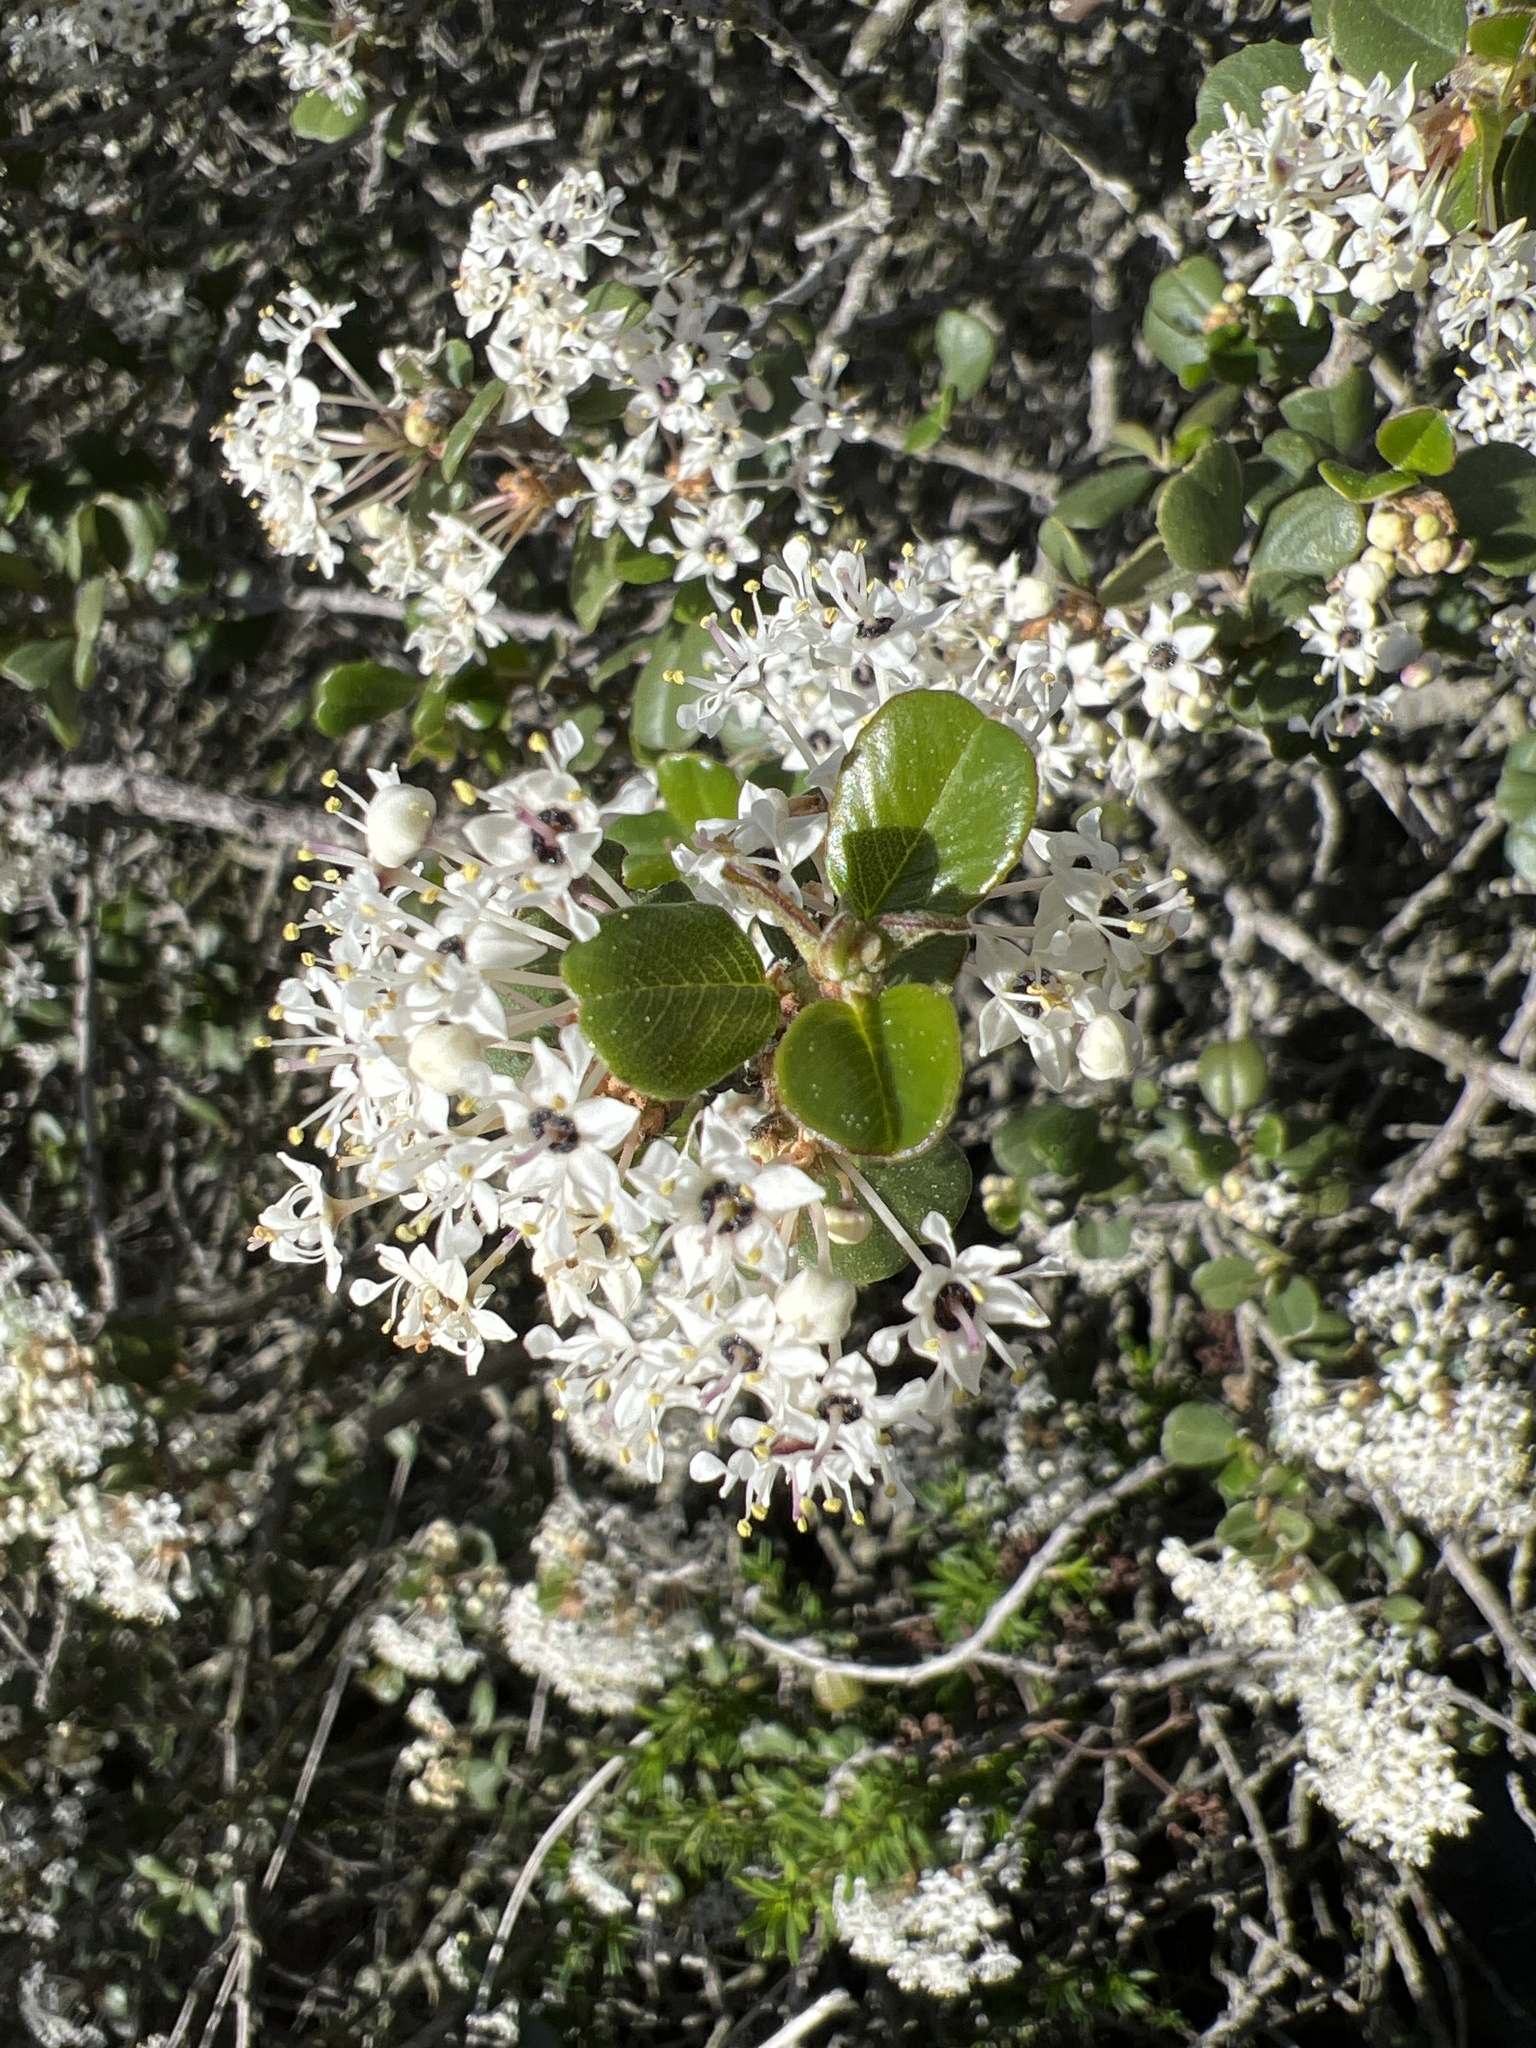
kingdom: Plantae
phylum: Tracheophyta
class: Magnoliopsida
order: Rosales
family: Rhamnaceae
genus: Ceanothus
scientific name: Ceanothus verrucosus
